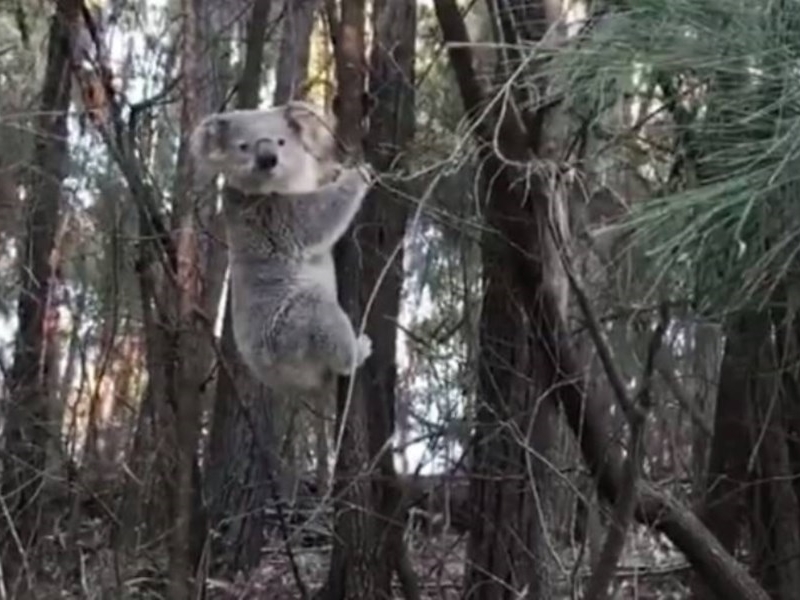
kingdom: Animalia
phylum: Chordata
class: Mammalia
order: Diprotodontia
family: Phascolarctidae
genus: Phascolarctos
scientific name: Phascolarctos cinereus
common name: Koala
